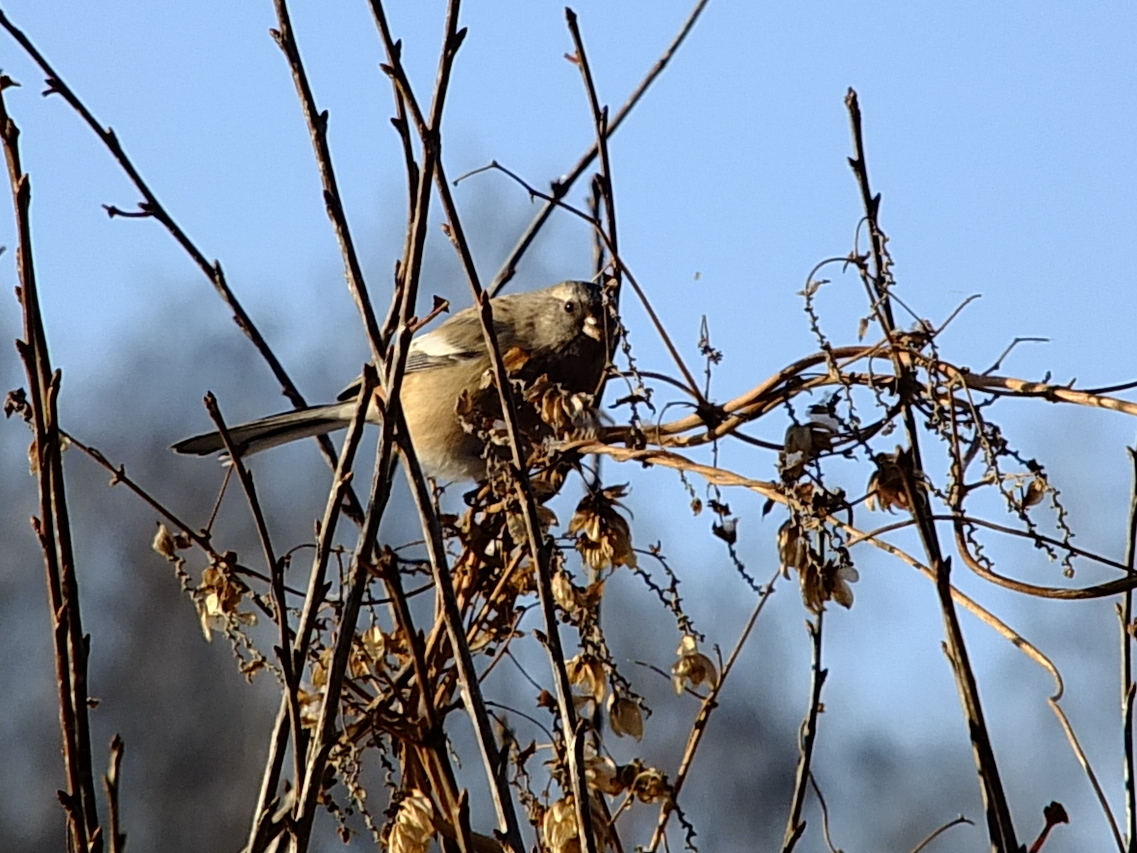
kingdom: Animalia
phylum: Chordata
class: Aves
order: Passeriformes
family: Fringillidae
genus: Carpodacus
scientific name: Carpodacus sibiricus
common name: Long-tailed rosefinch
